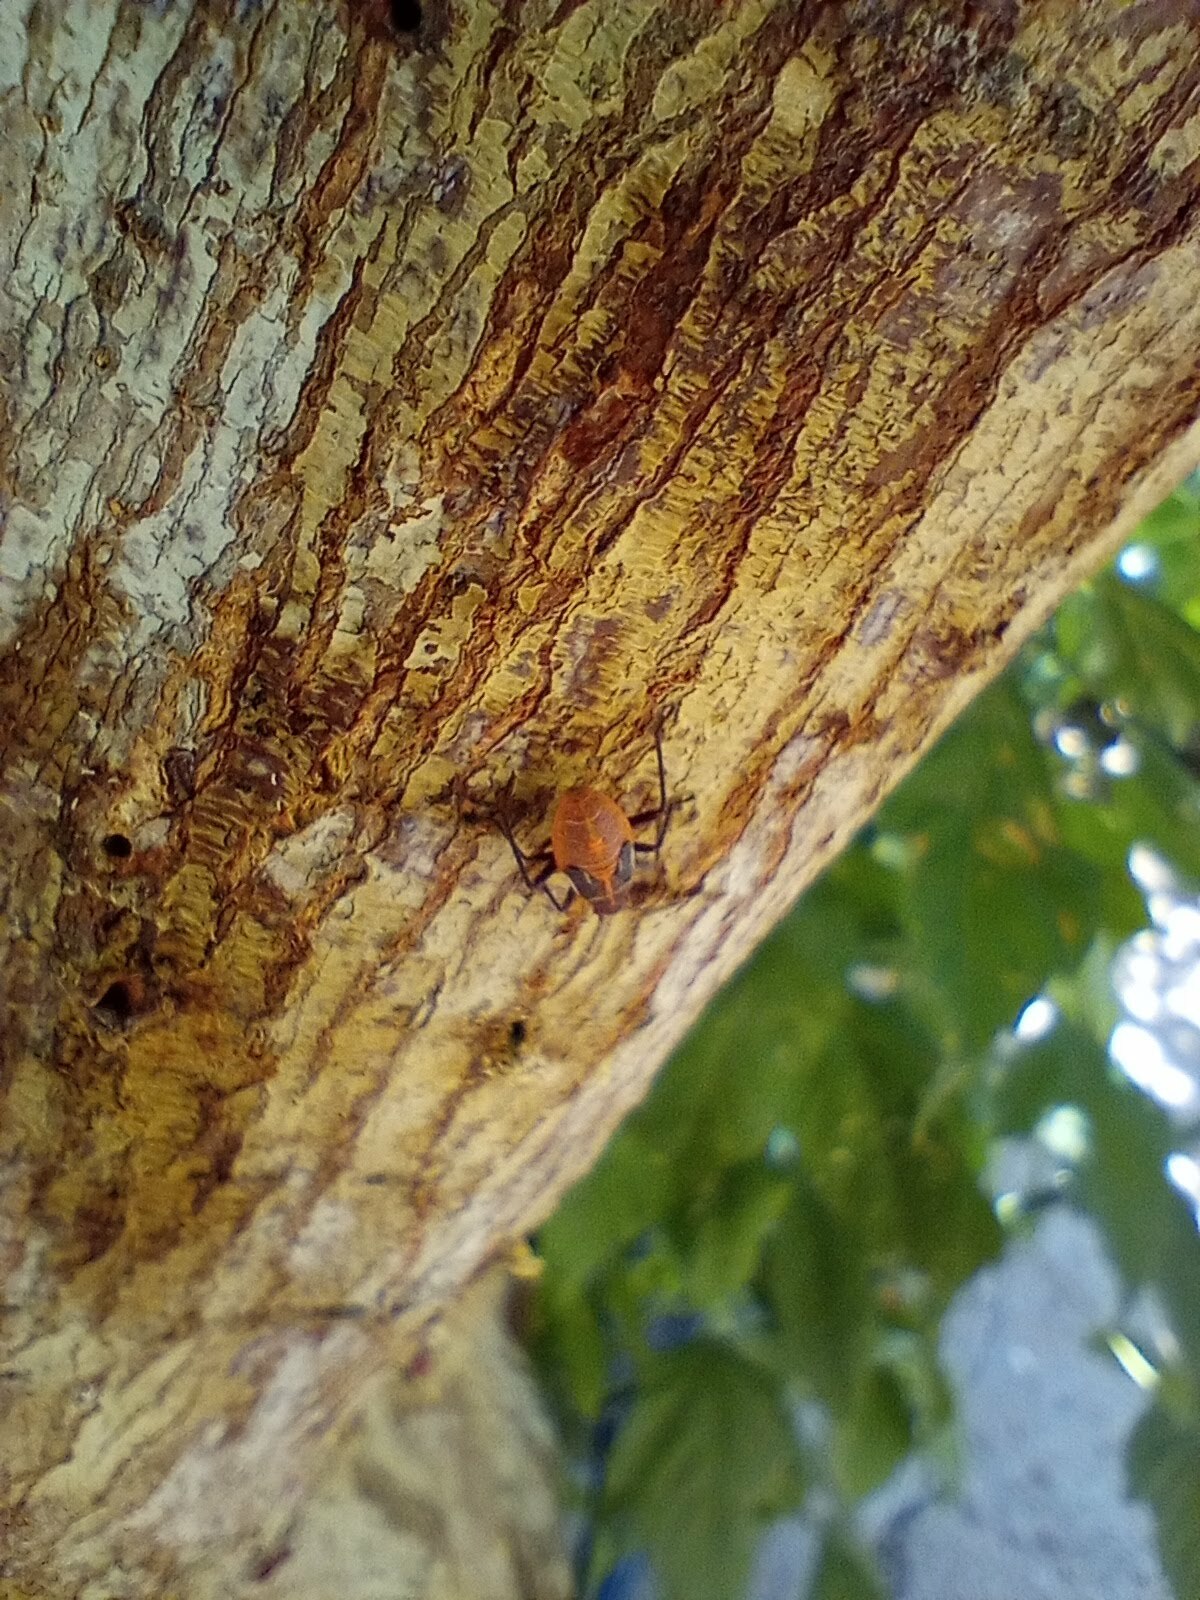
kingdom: Animalia
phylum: Arthropoda
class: Insecta
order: Hemiptera
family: Rhopalidae
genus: Boisea
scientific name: Boisea rubrolineata
